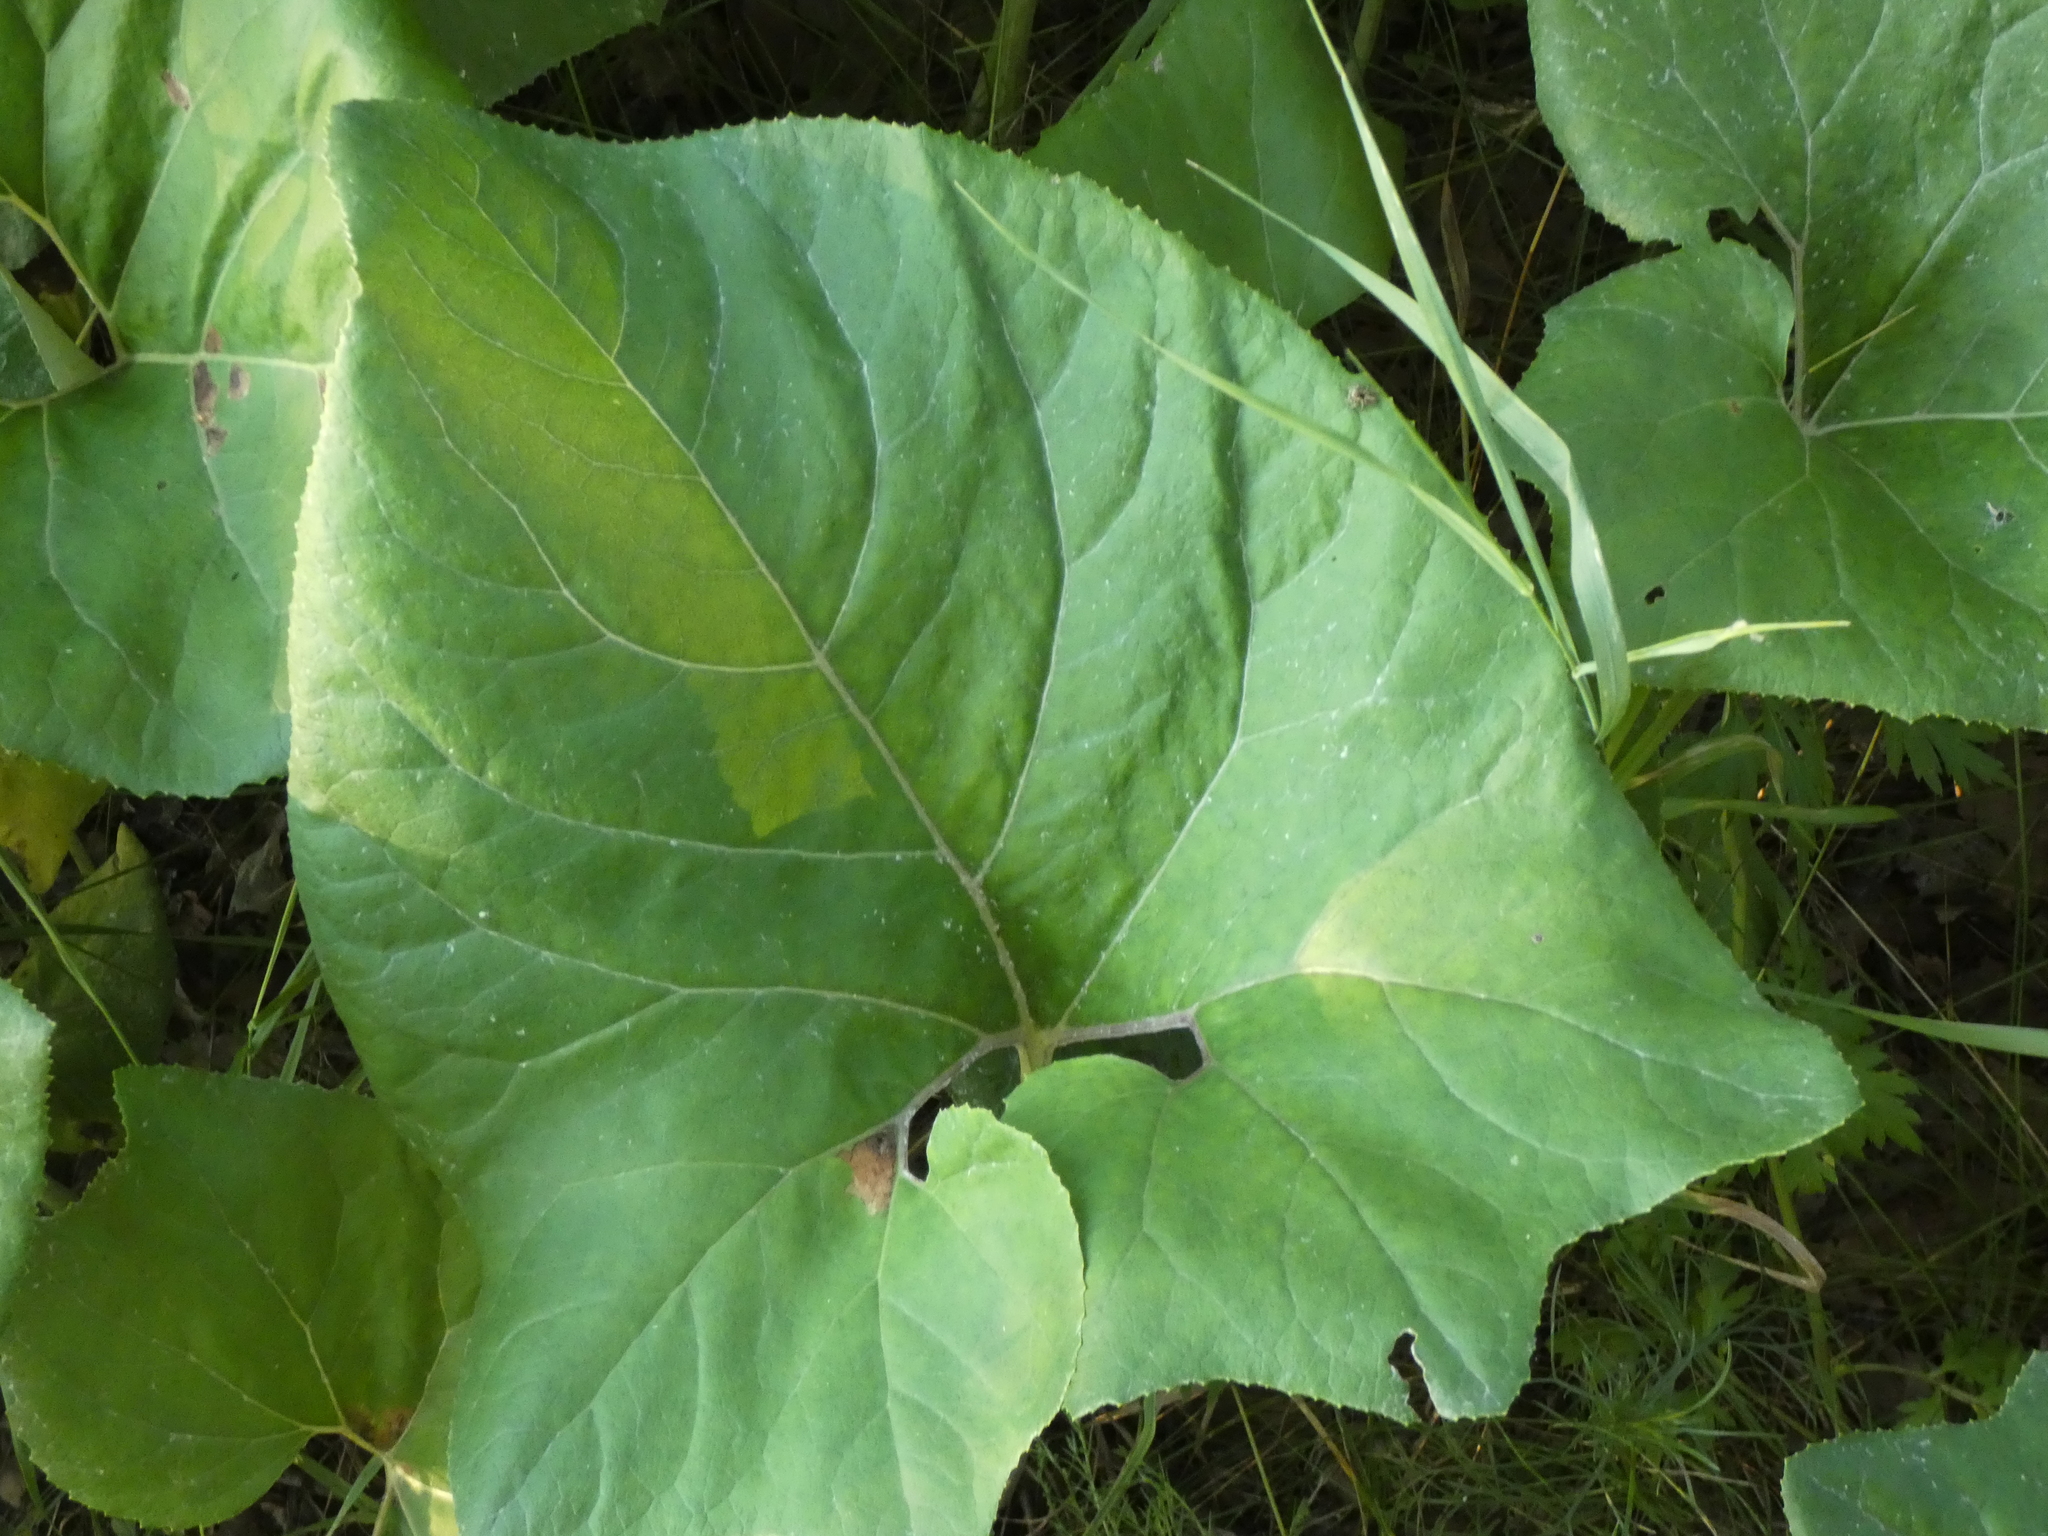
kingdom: Plantae
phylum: Tracheophyta
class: Magnoliopsida
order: Asterales
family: Asteraceae
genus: Petasites
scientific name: Petasites spurius
